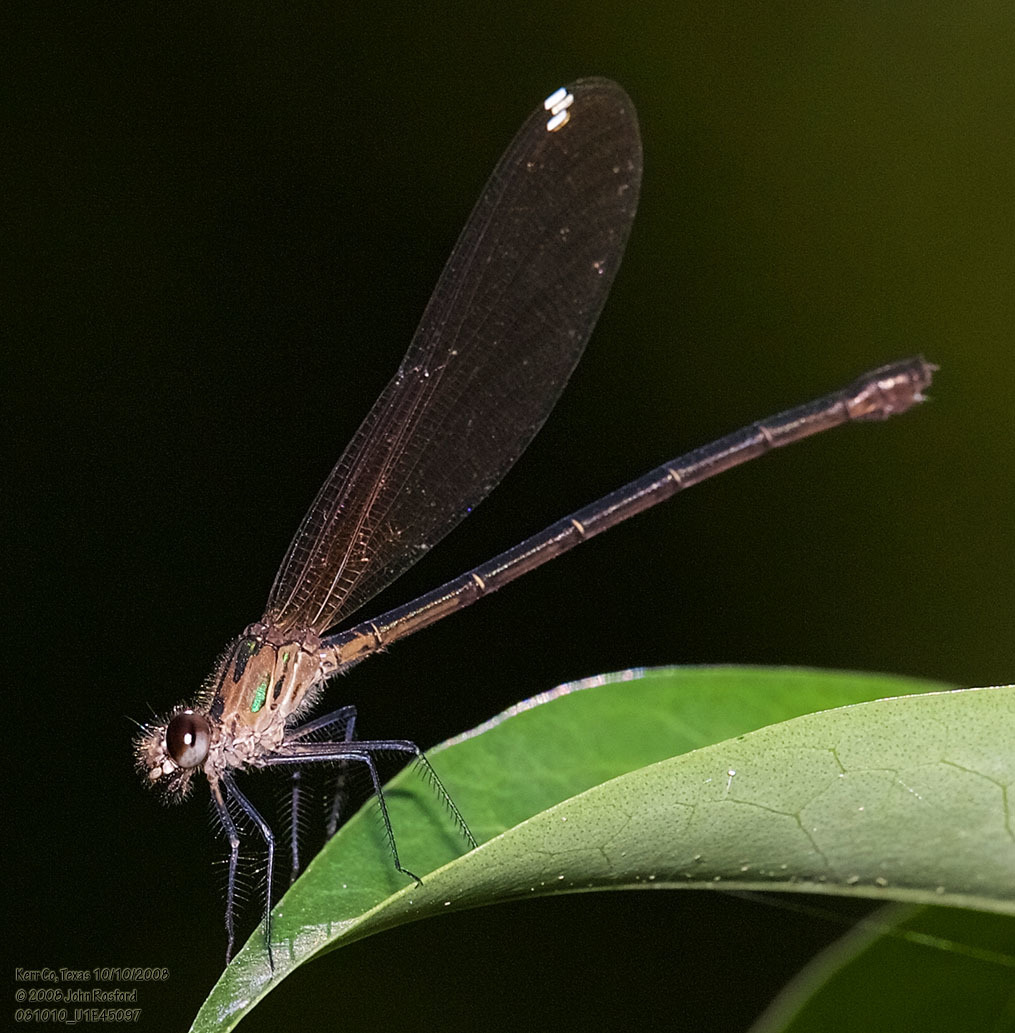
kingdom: Animalia
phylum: Arthropoda
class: Insecta
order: Odonata
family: Calopterygidae
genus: Hetaerina
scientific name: Hetaerina titia
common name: Smoky rubyspot
